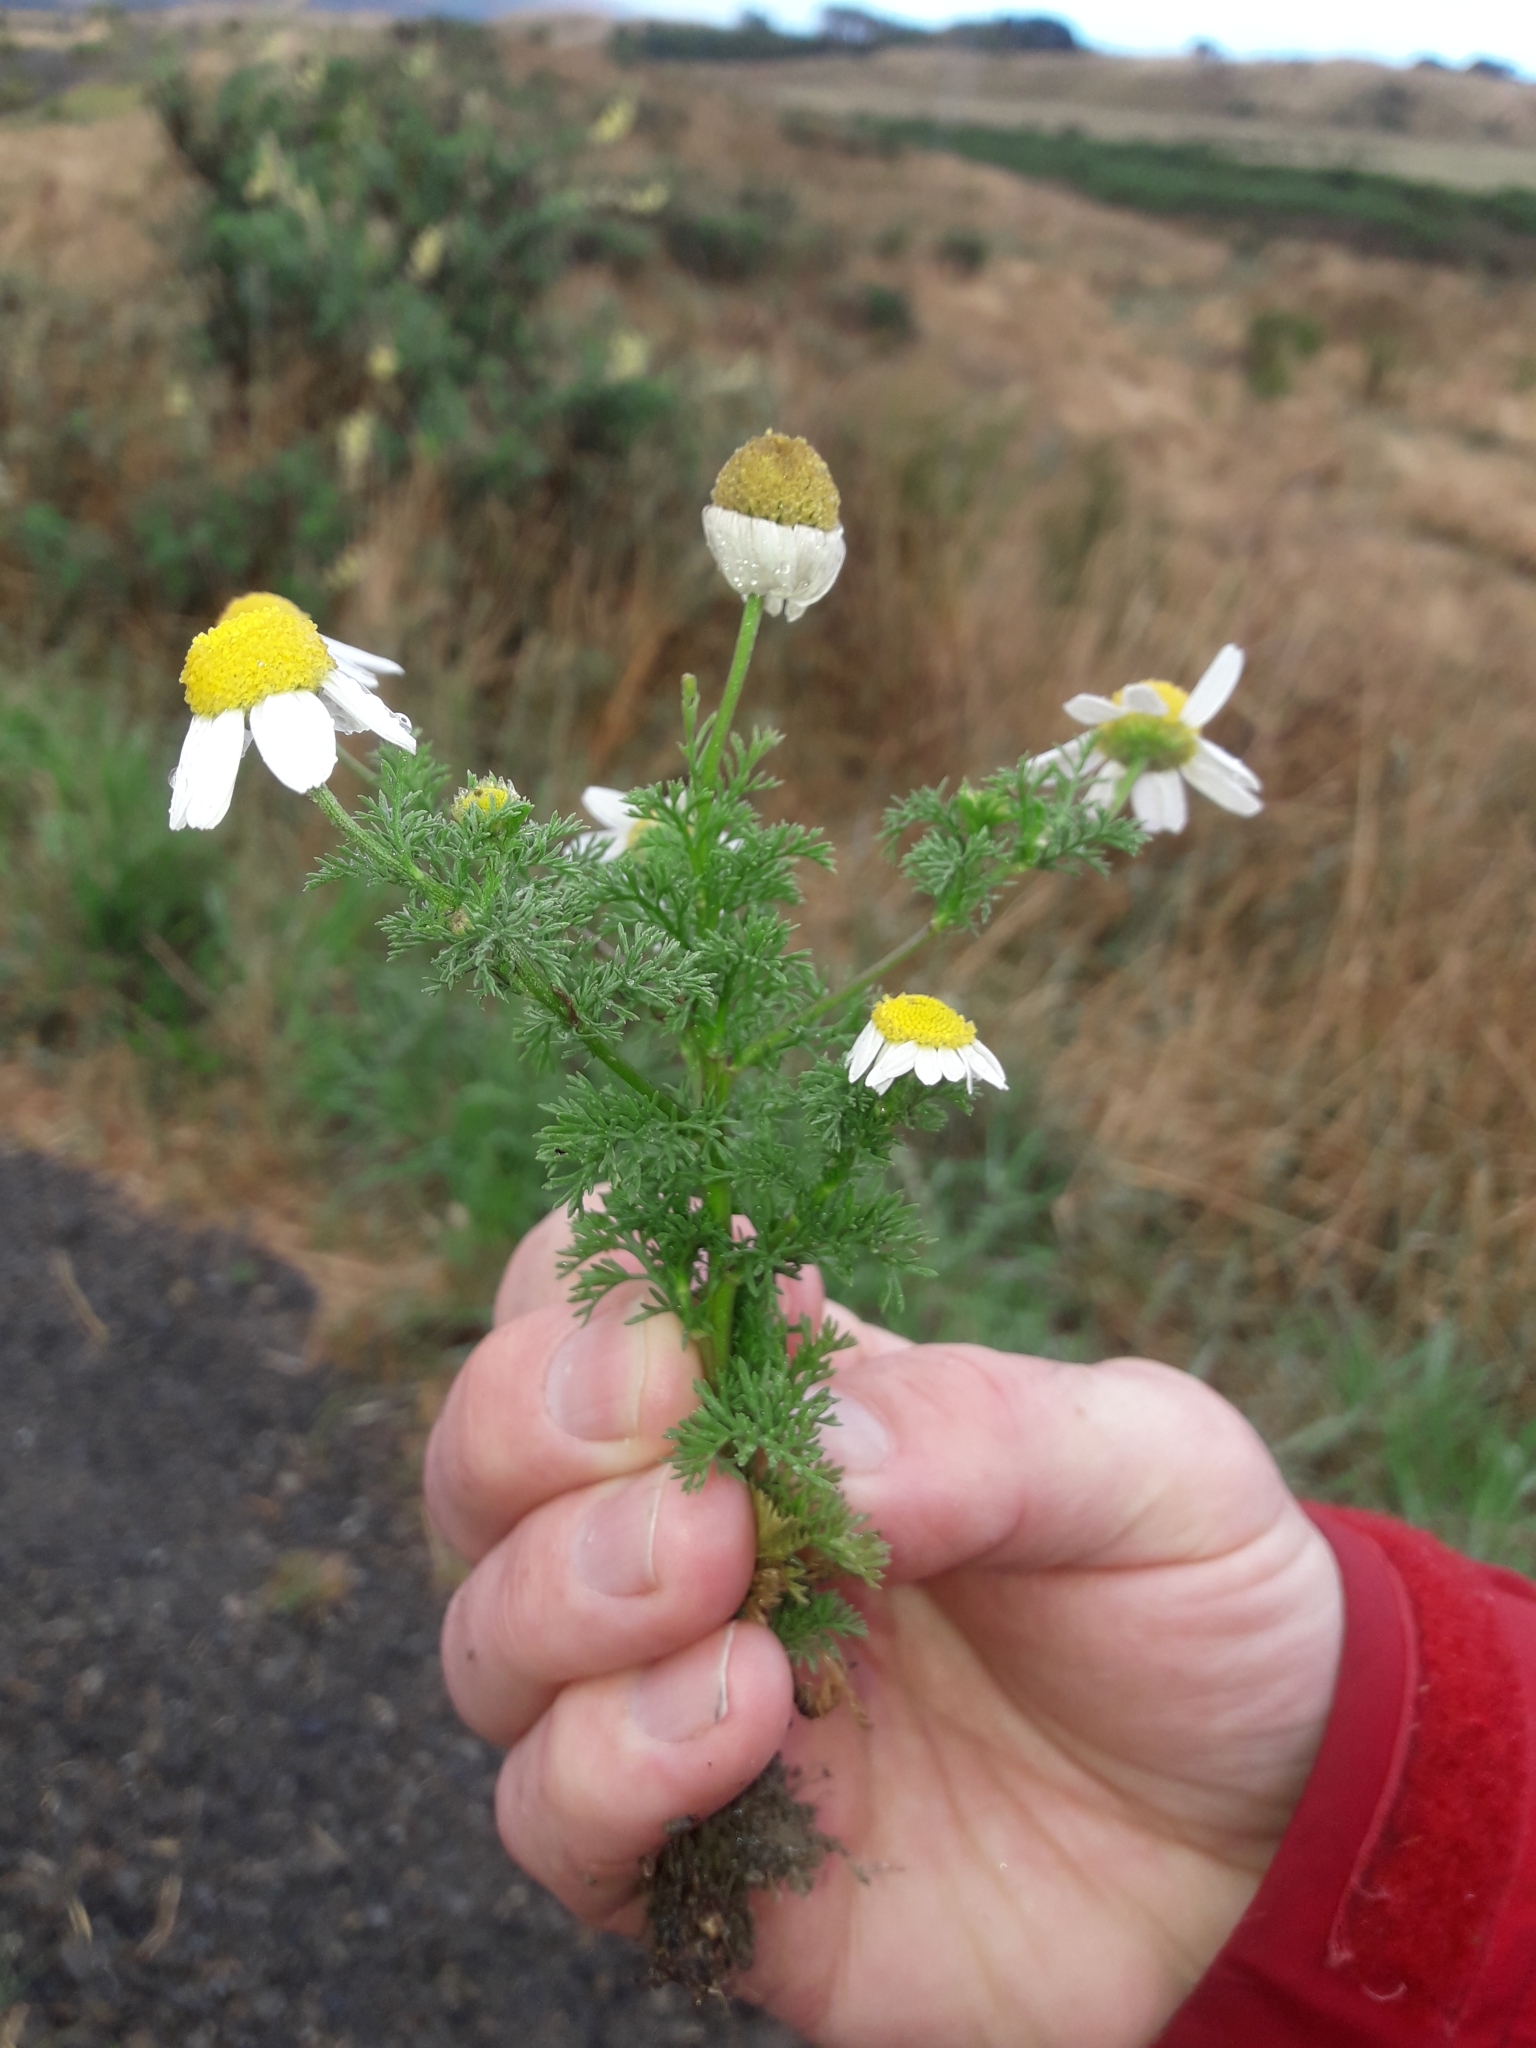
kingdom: Plantae
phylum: Tracheophyta
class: Magnoliopsida
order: Asterales
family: Asteraceae
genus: Anthemis
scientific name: Anthemis cotula
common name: Stinking chamomile
